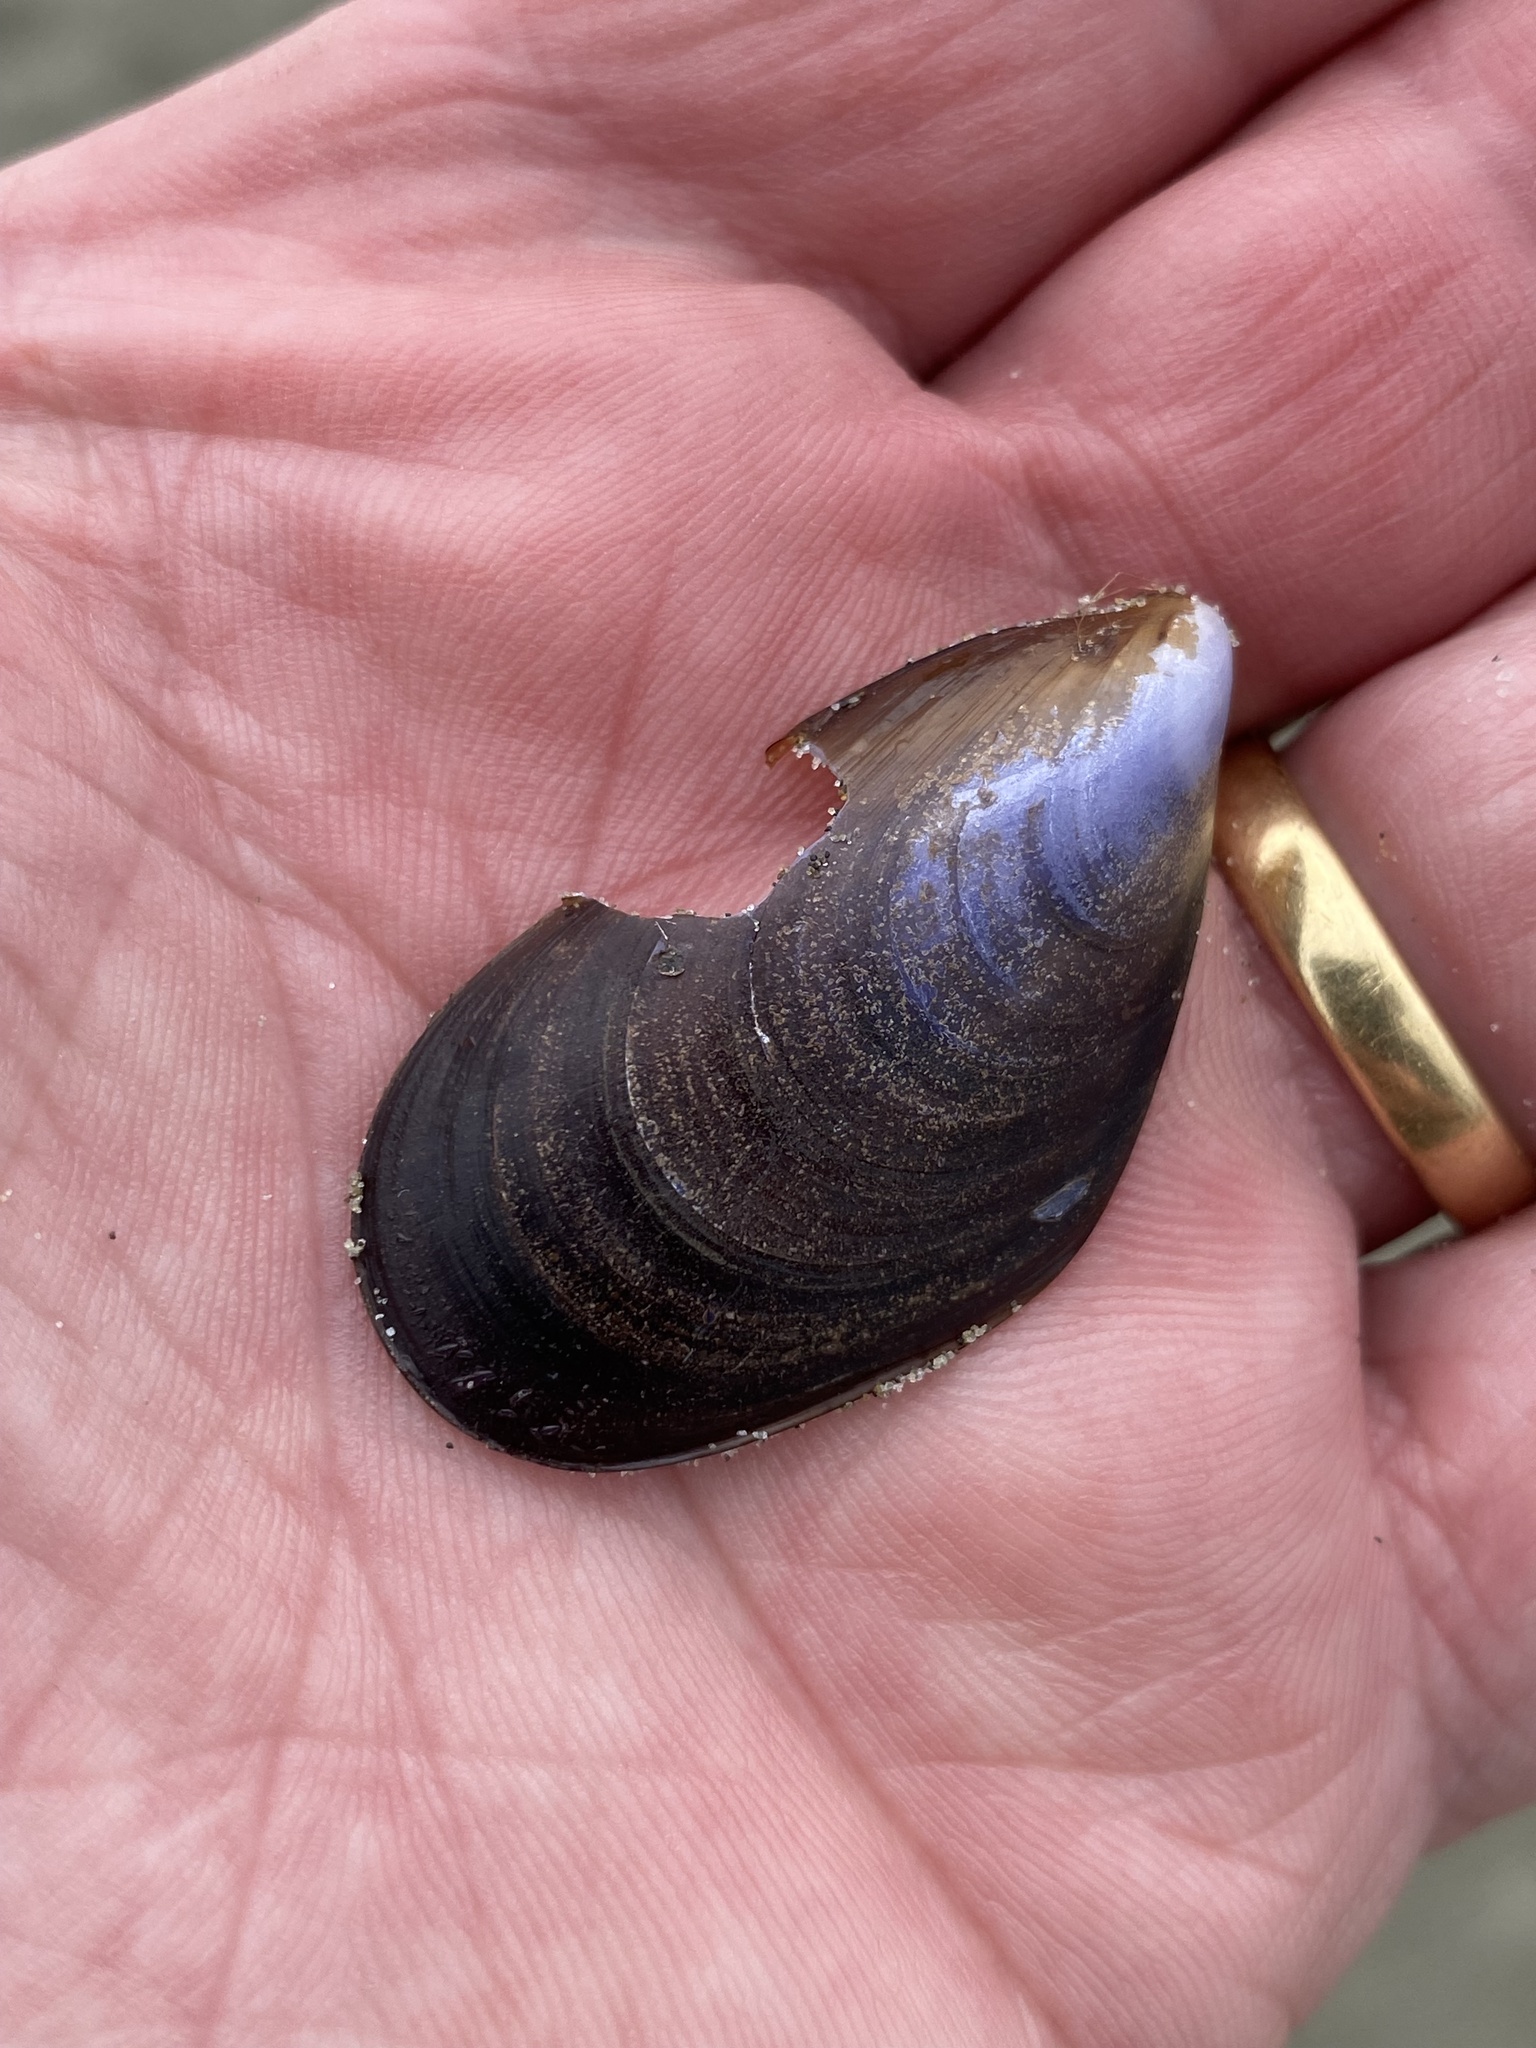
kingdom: Animalia
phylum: Mollusca
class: Bivalvia
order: Mytilida
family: Mytilidae
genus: Mytilus
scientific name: Mytilus planulatus
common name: Australian mussel
